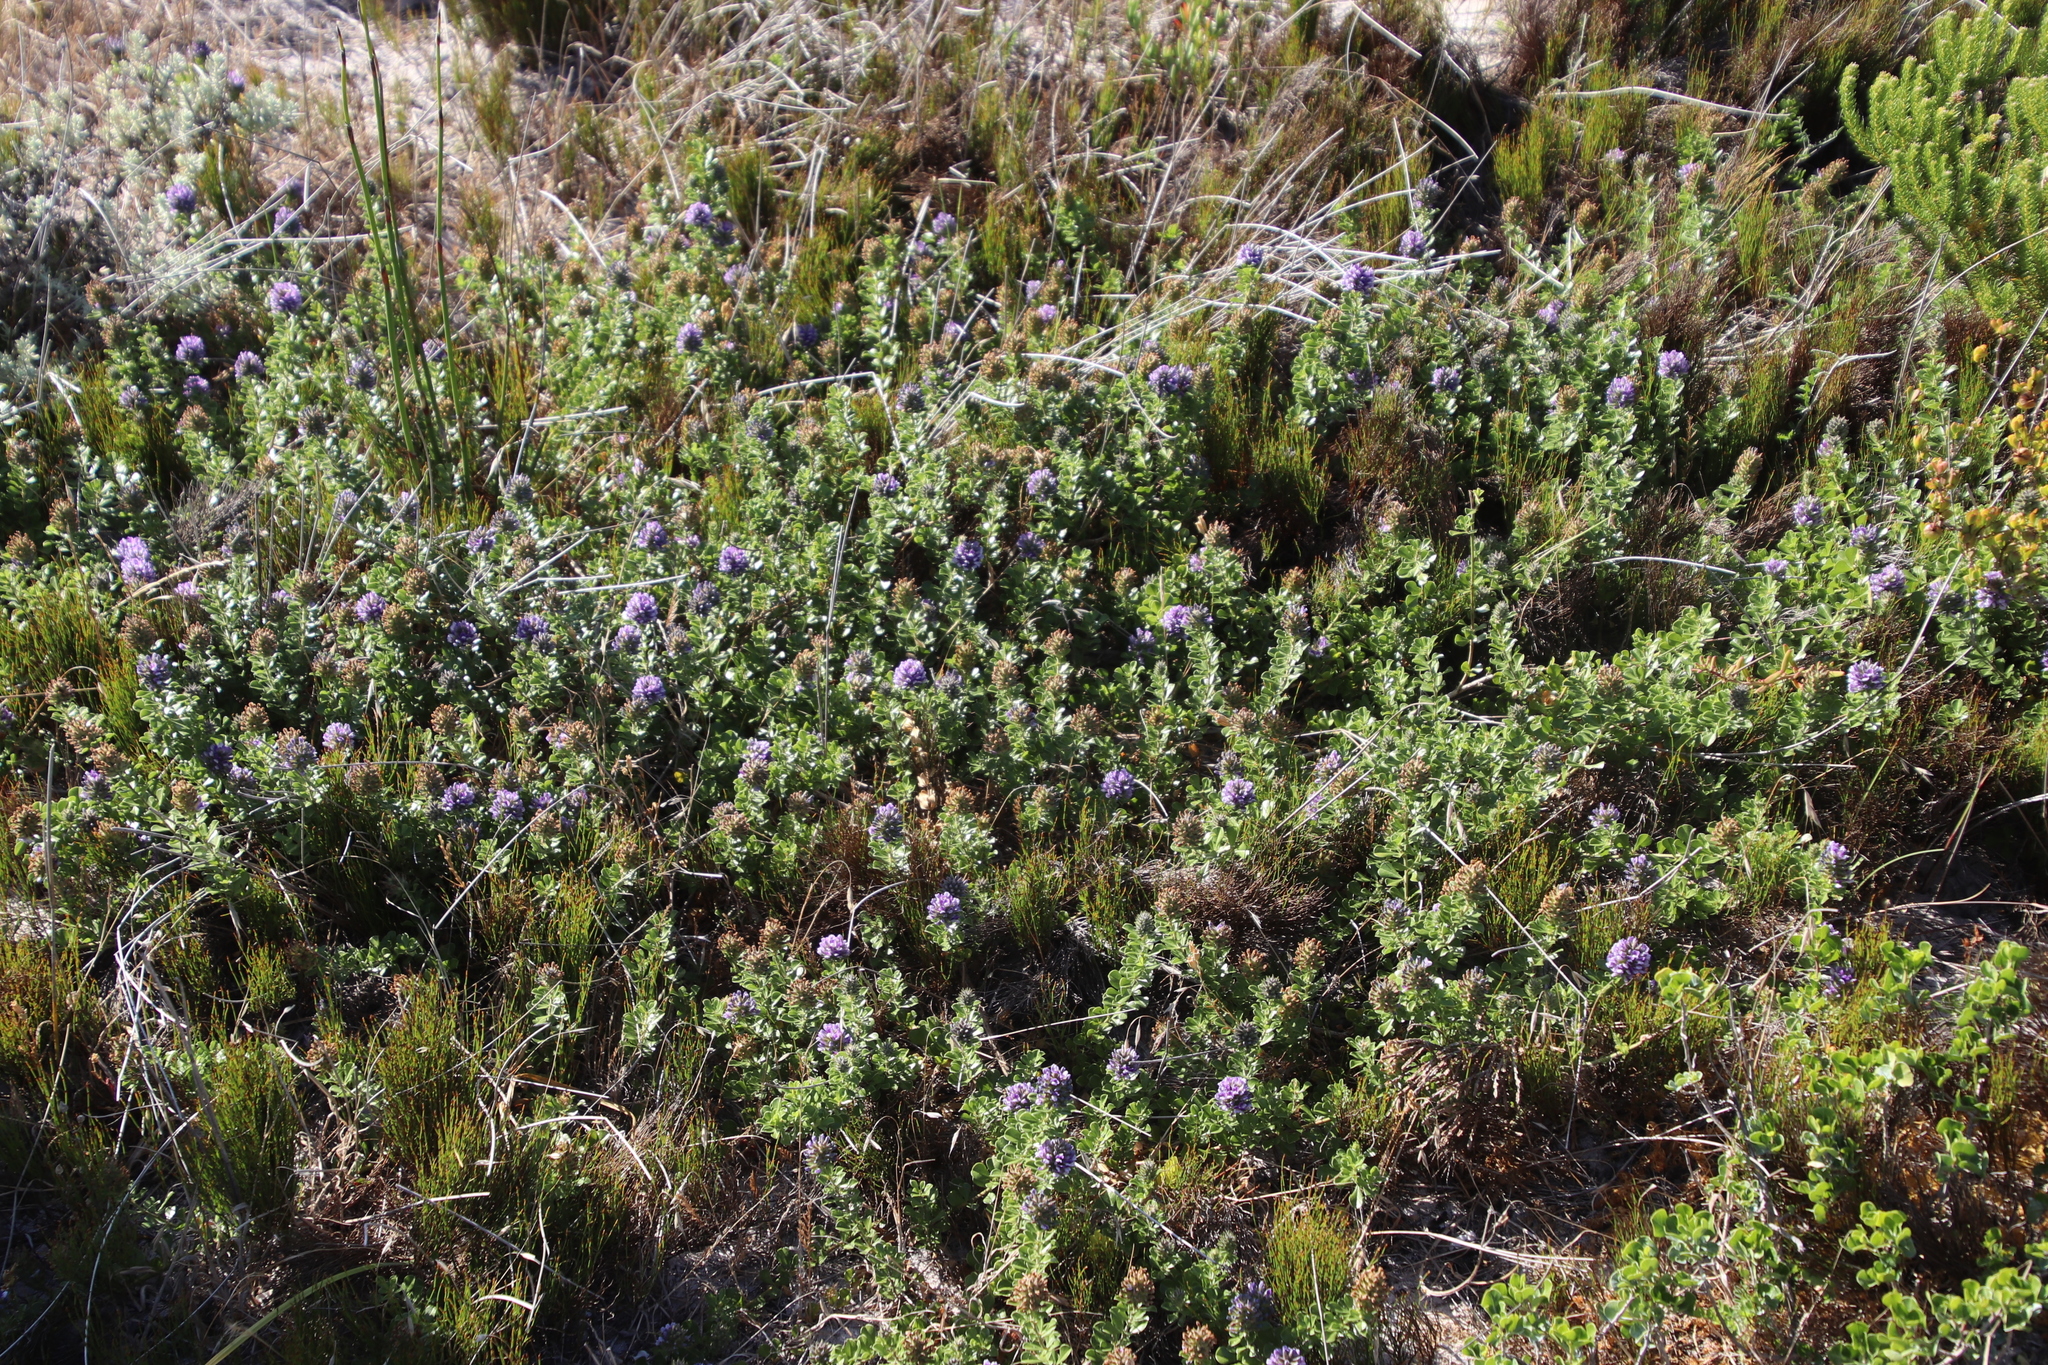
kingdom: Plantae
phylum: Tracheophyta
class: Magnoliopsida
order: Fabales
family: Fabaceae
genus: Psoralea
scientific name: Psoralea bracteolata
